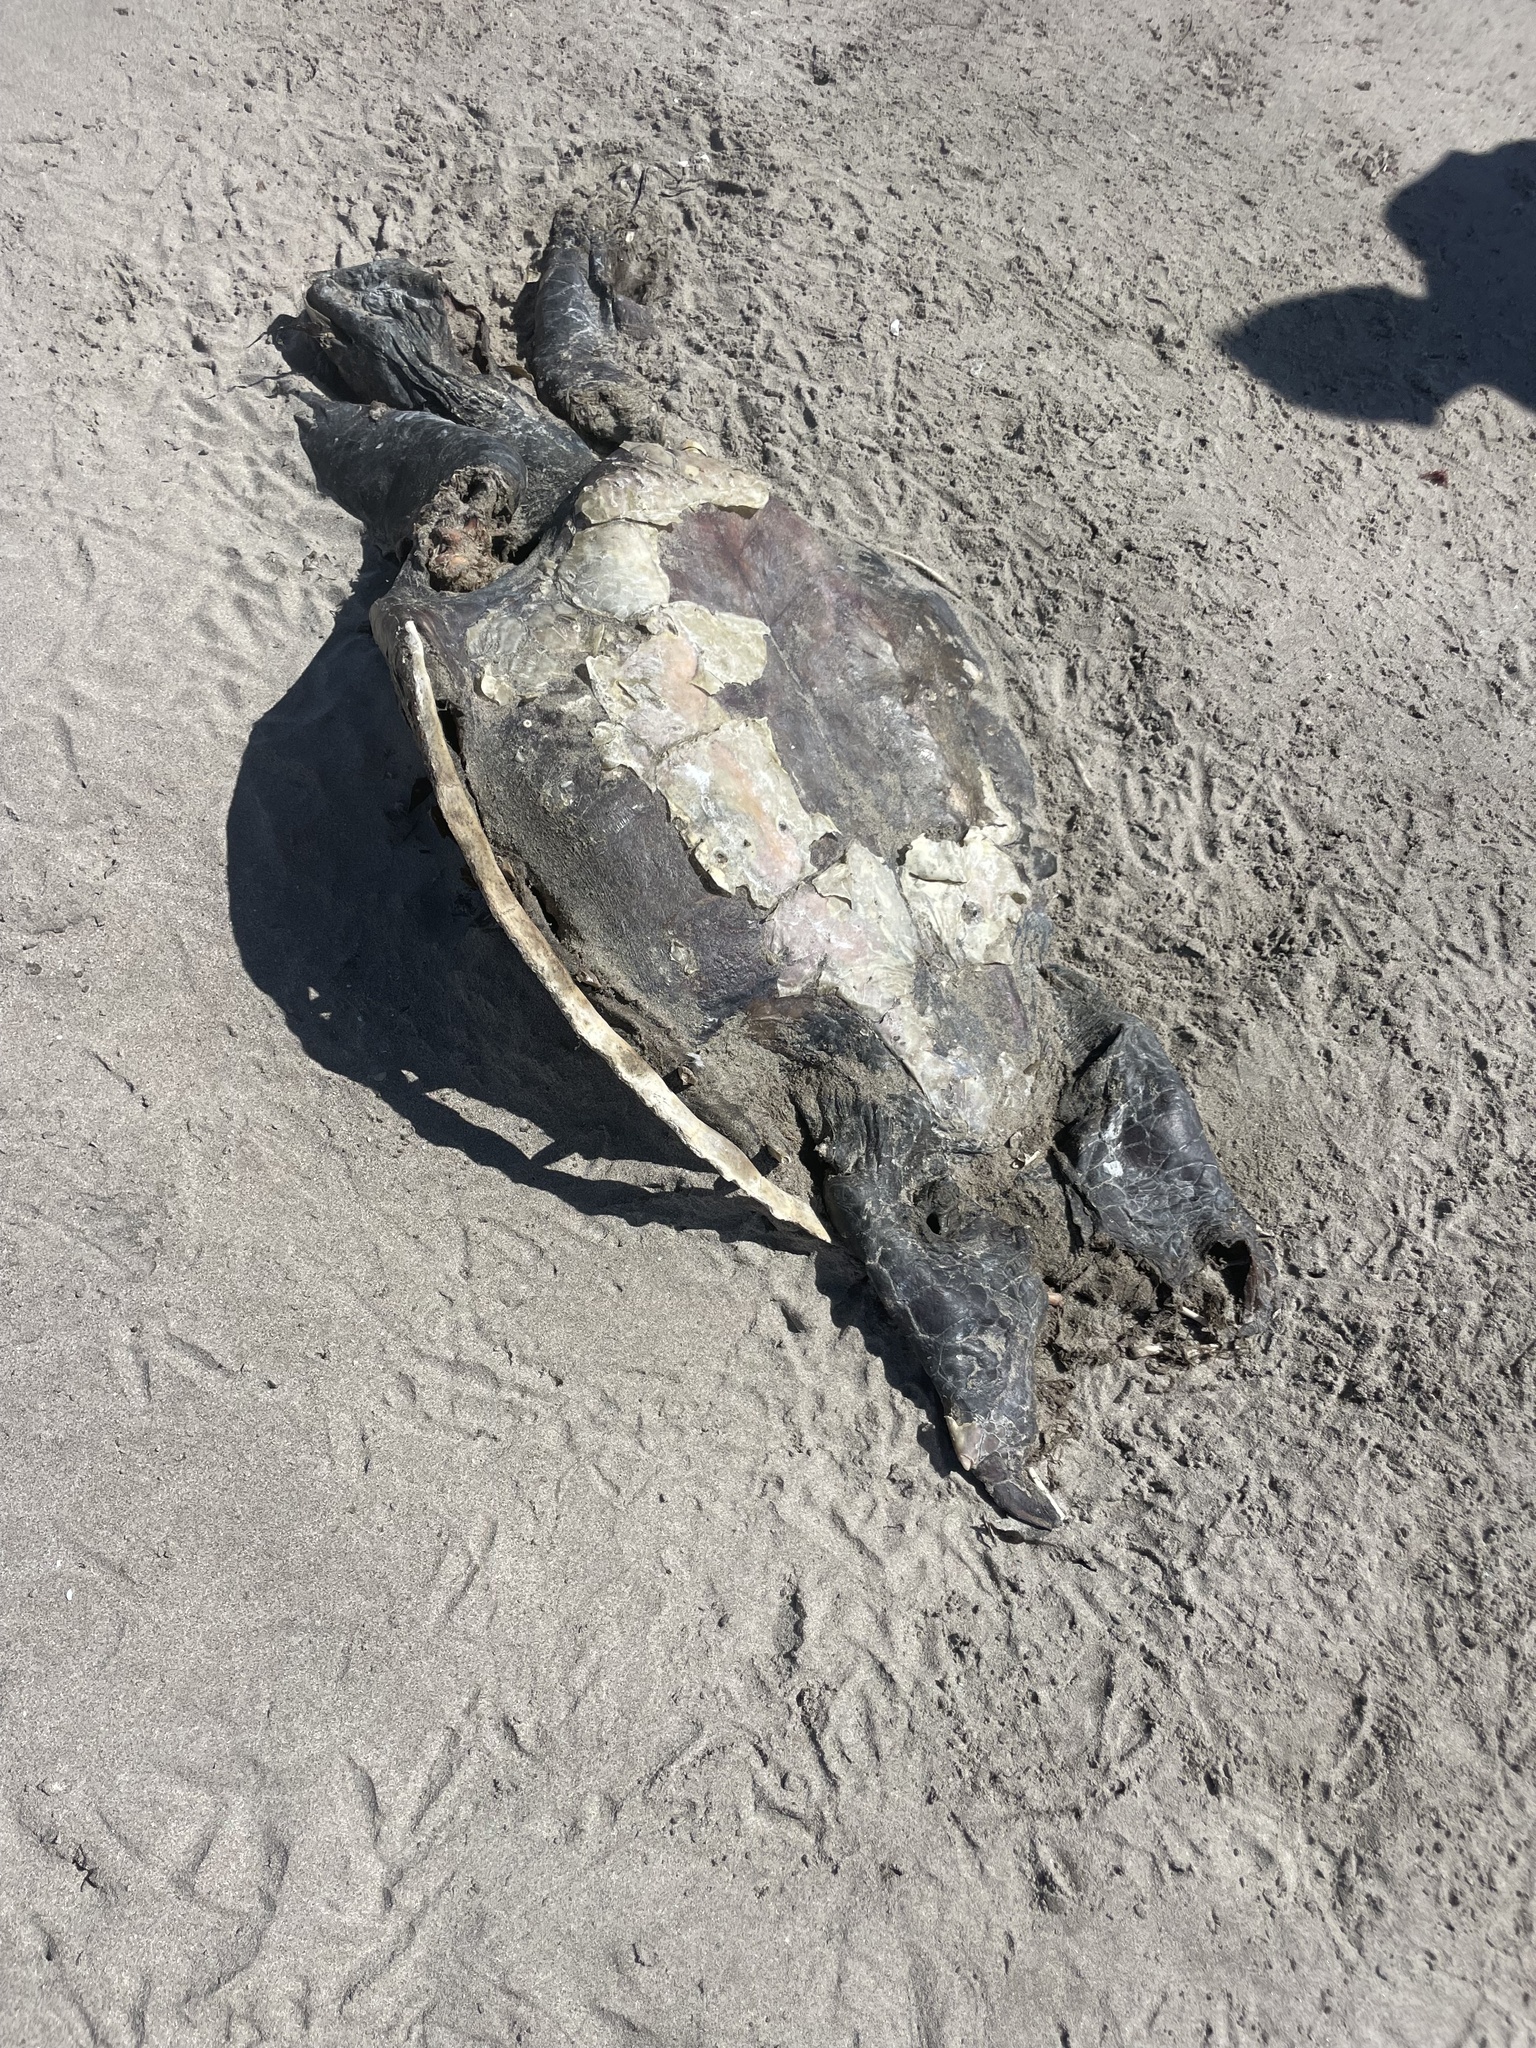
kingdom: Animalia
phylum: Chordata
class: Testudines
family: Cheloniidae
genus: Lepidochelys
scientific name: Lepidochelys olivacea
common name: Olive ridley
